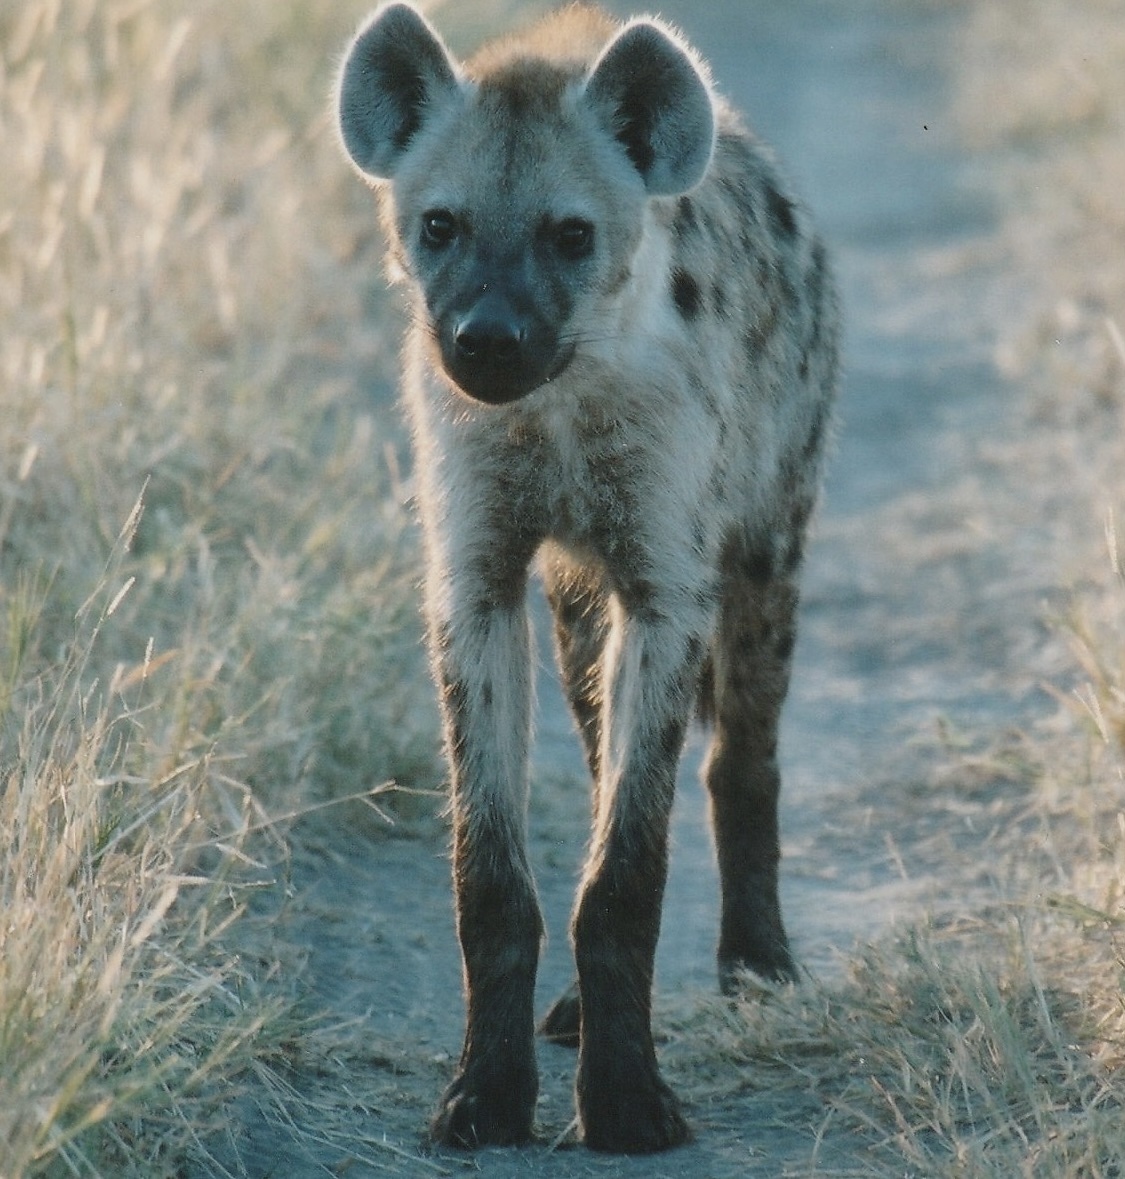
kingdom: Animalia
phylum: Chordata
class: Mammalia
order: Carnivora
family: Hyaenidae
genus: Crocuta
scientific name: Crocuta crocuta
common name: Spotted hyaena
